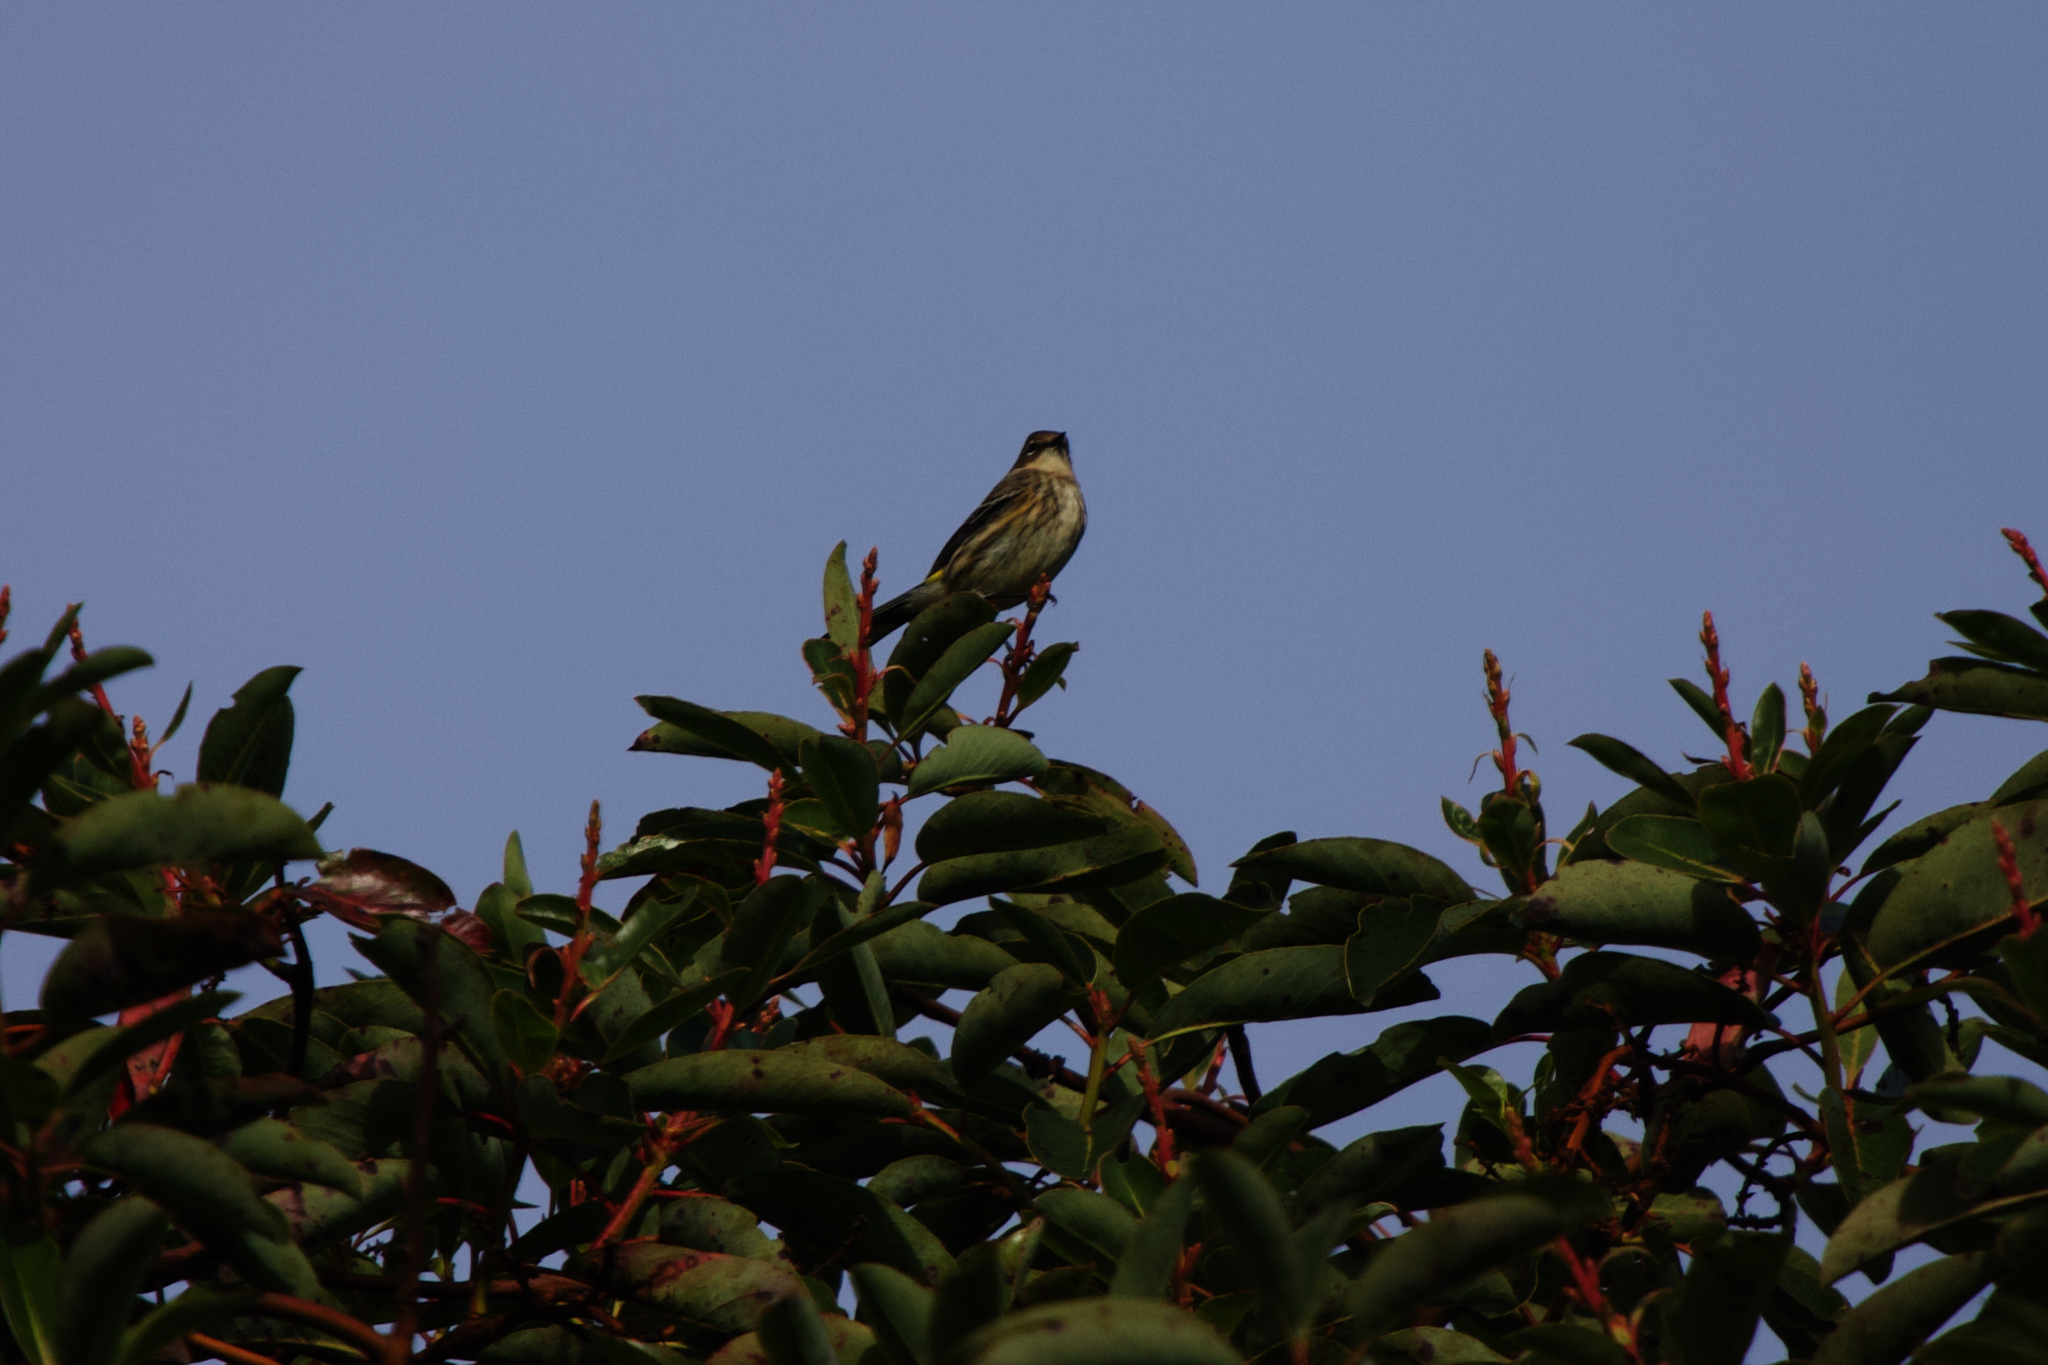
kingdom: Animalia
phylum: Chordata
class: Aves
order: Passeriformes
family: Parulidae
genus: Setophaga
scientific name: Setophaga coronata
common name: Myrtle warbler
